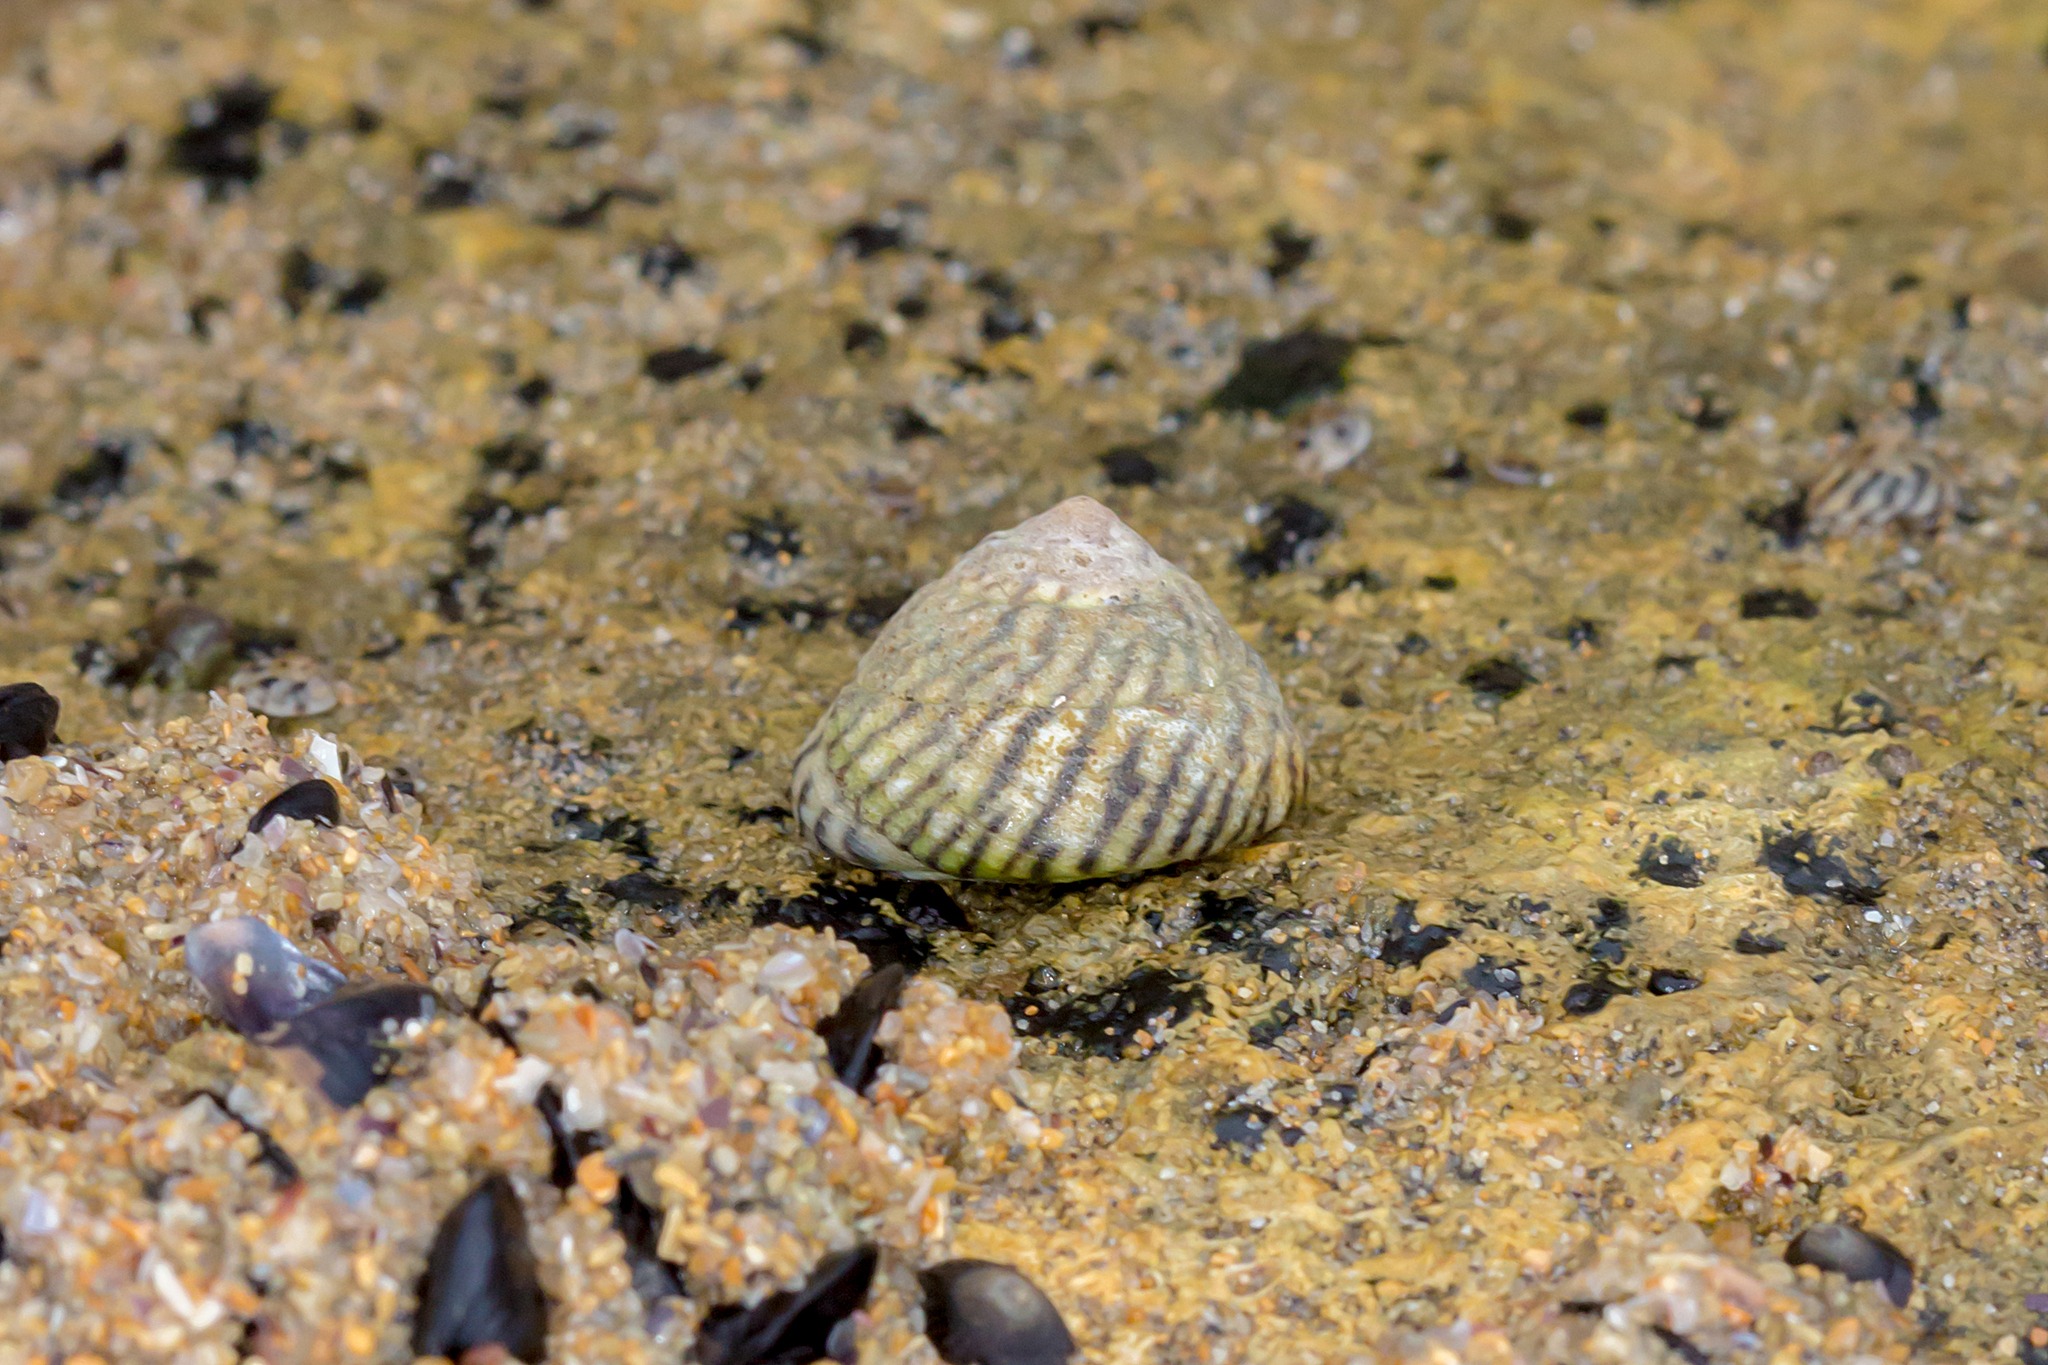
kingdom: Animalia
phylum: Mollusca
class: Gastropoda
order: Littorinimorpha
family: Littorinidae
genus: Bembicium
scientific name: Bembicium nanum
